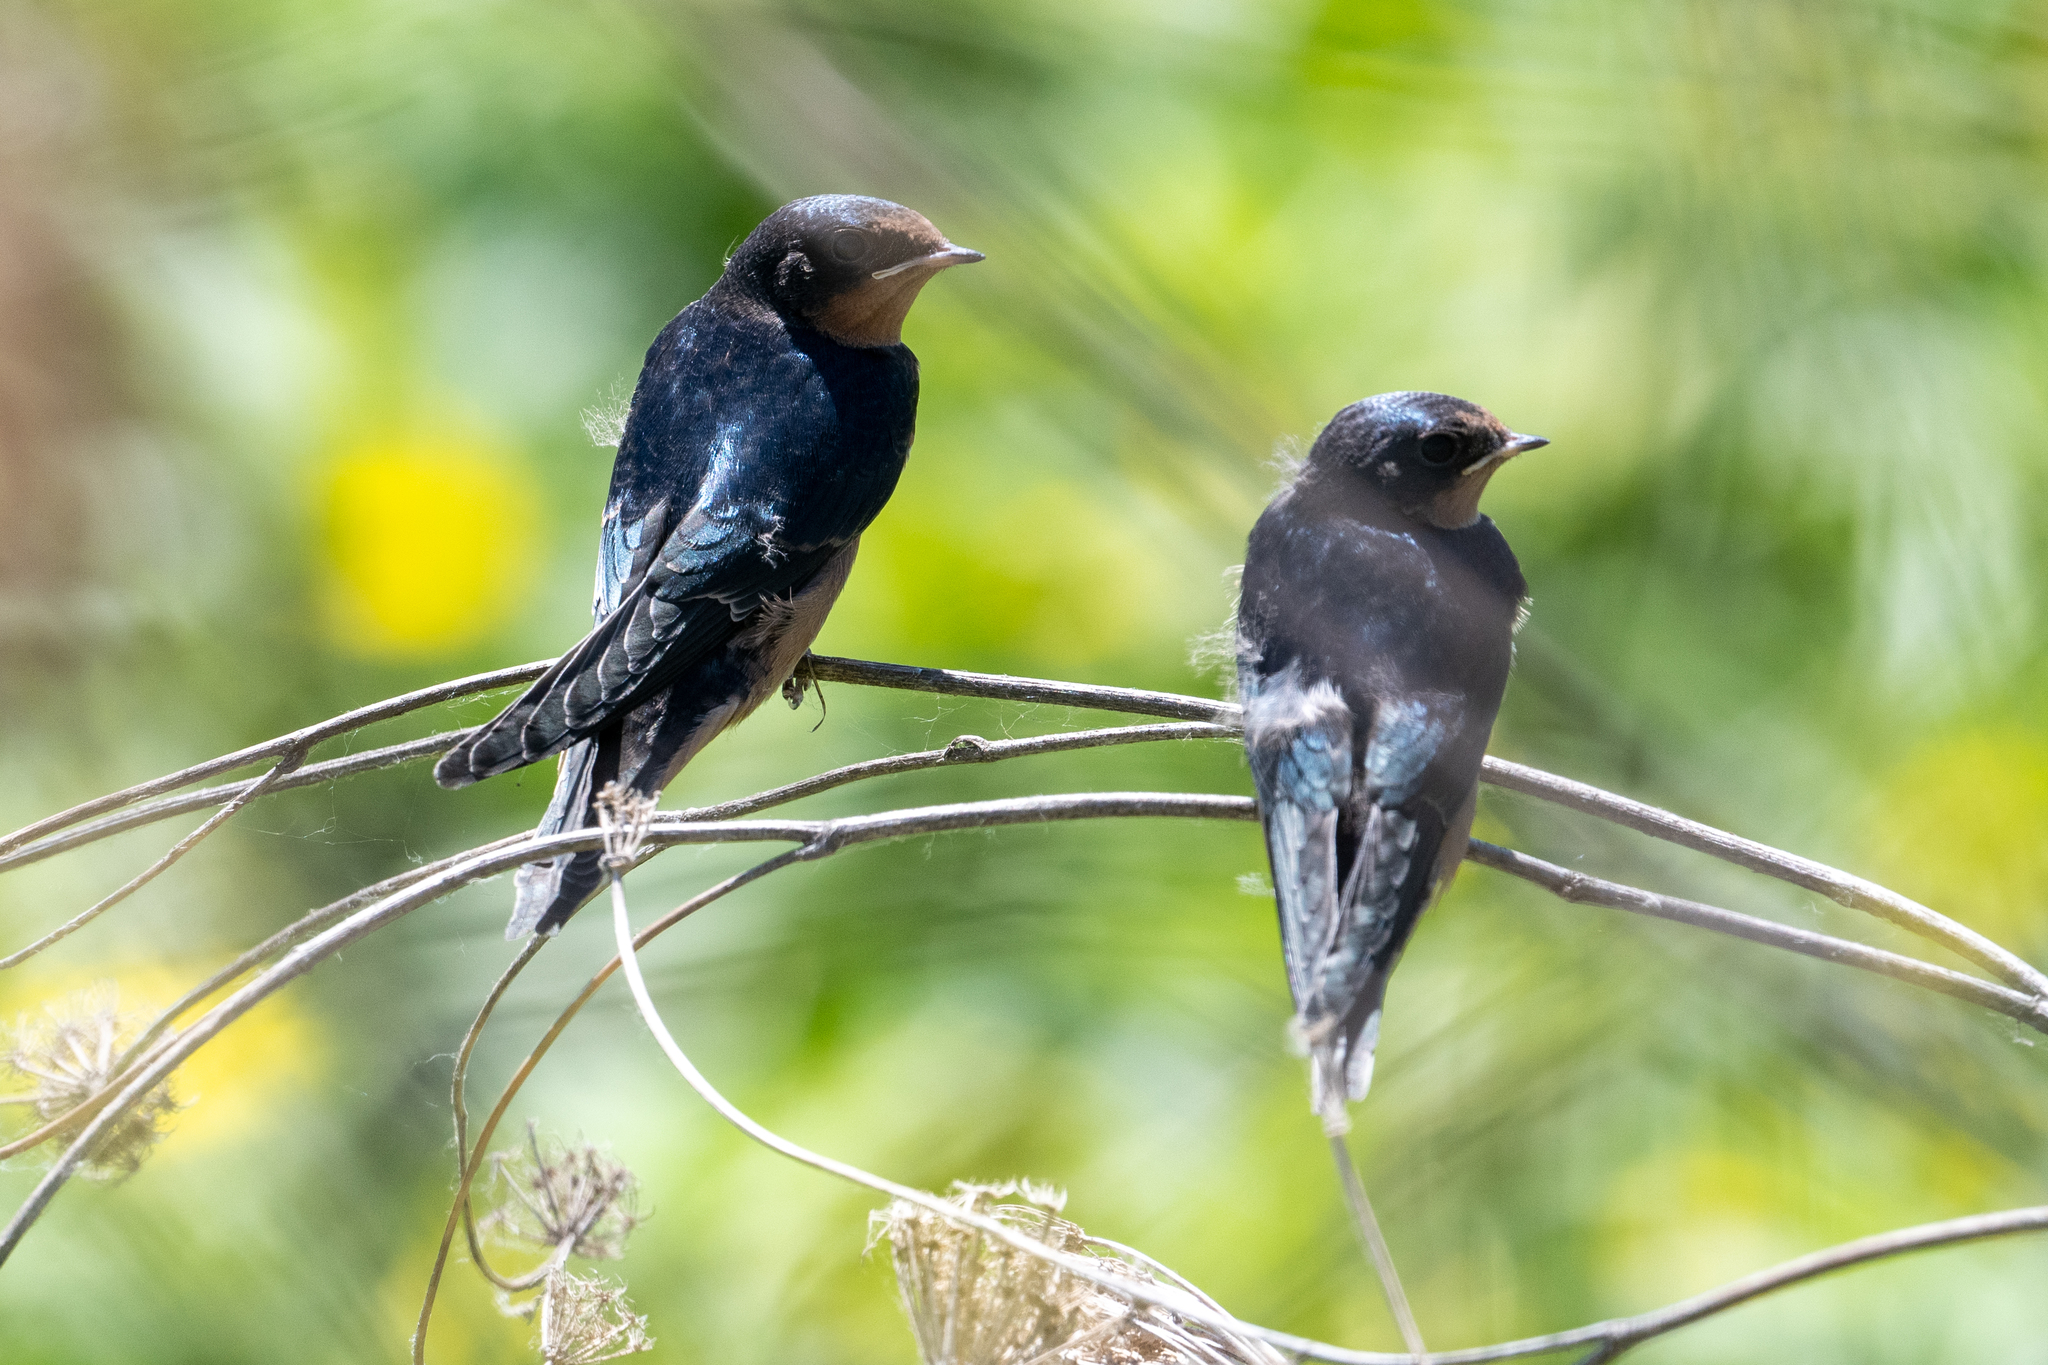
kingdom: Animalia
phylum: Chordata
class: Aves
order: Passeriformes
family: Hirundinidae
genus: Hirundo
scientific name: Hirundo rustica
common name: Barn swallow
